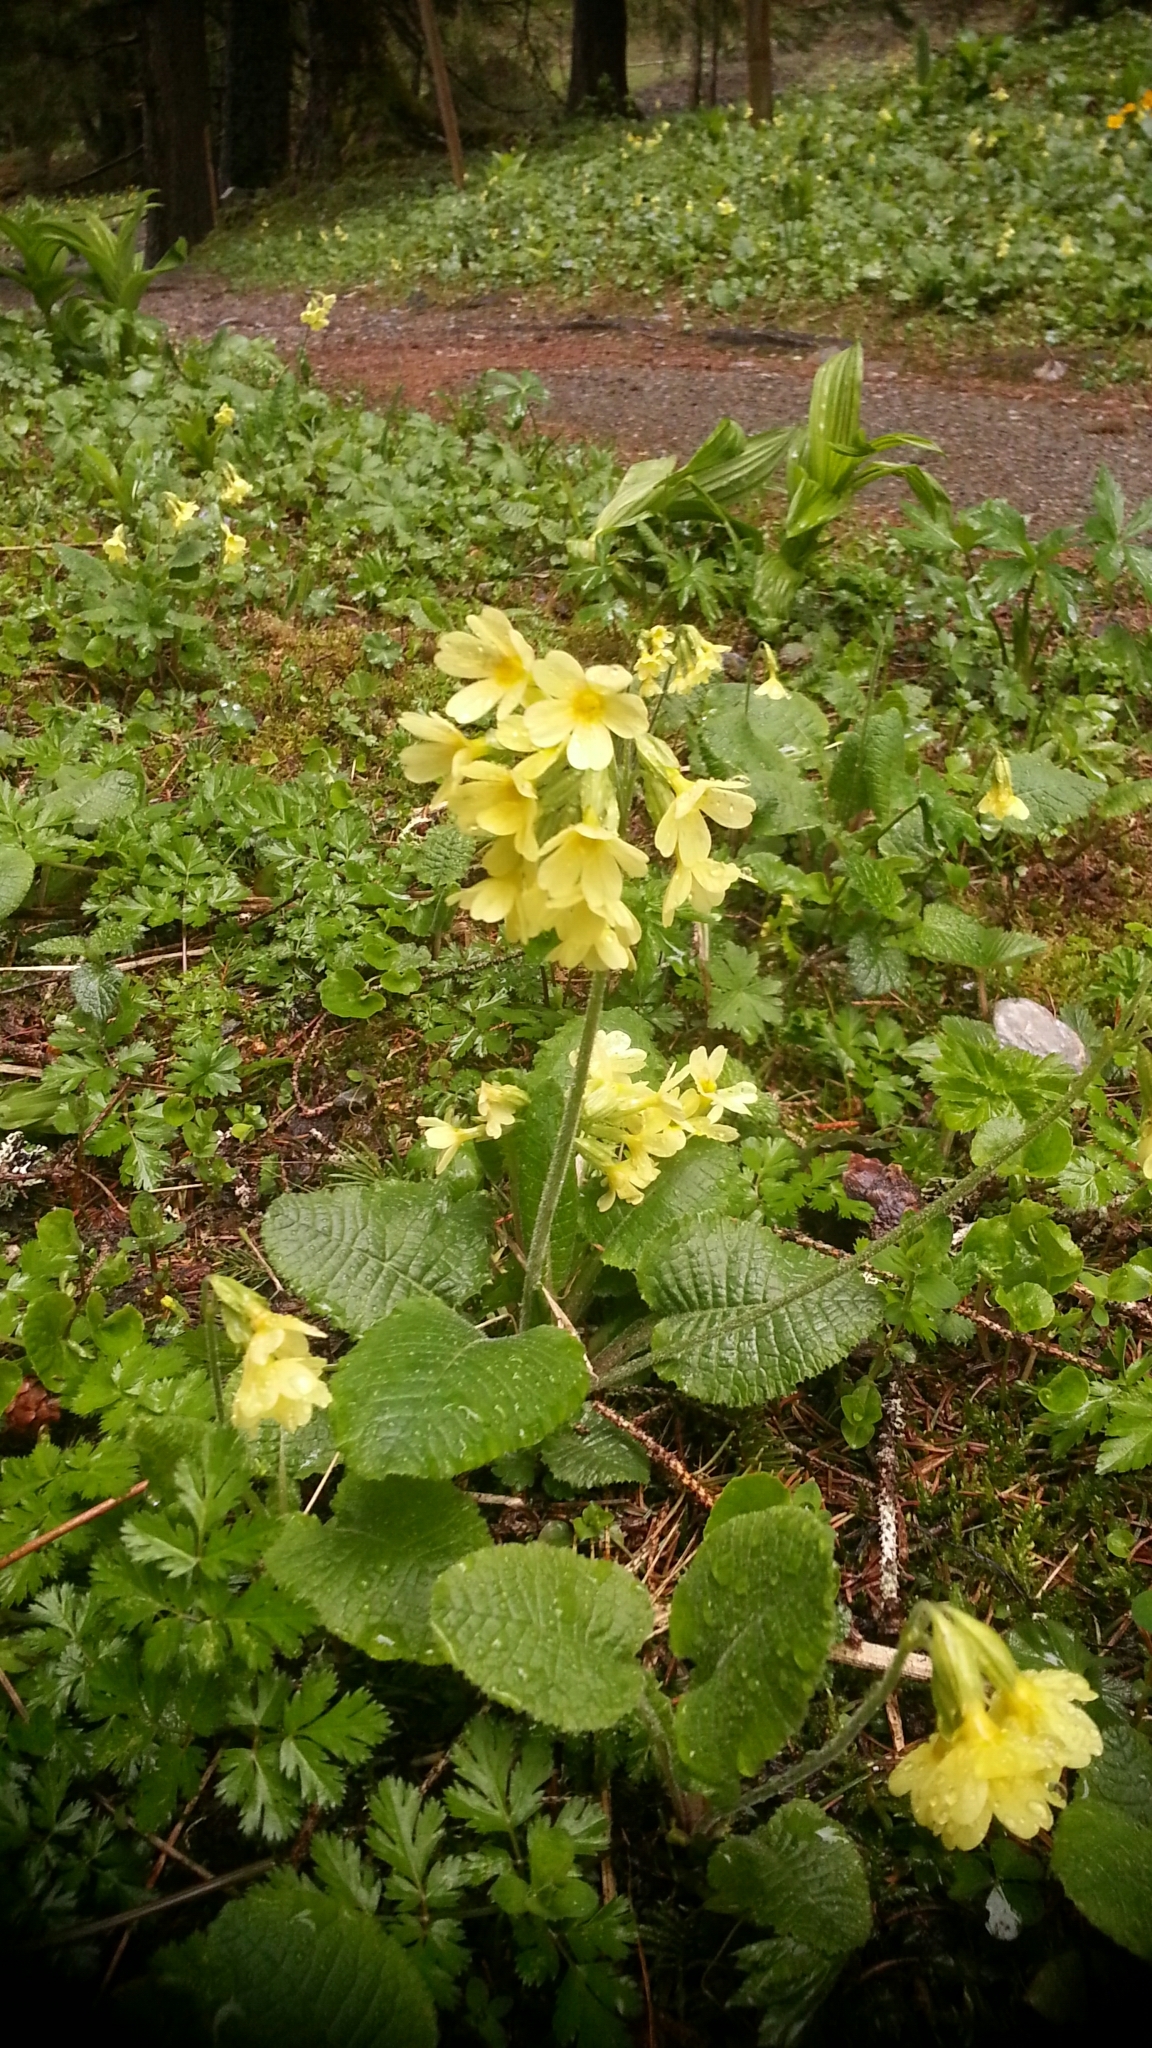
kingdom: Plantae
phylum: Tracheophyta
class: Magnoliopsida
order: Ericales
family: Primulaceae
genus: Primula
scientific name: Primula elatior
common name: Oxlip
